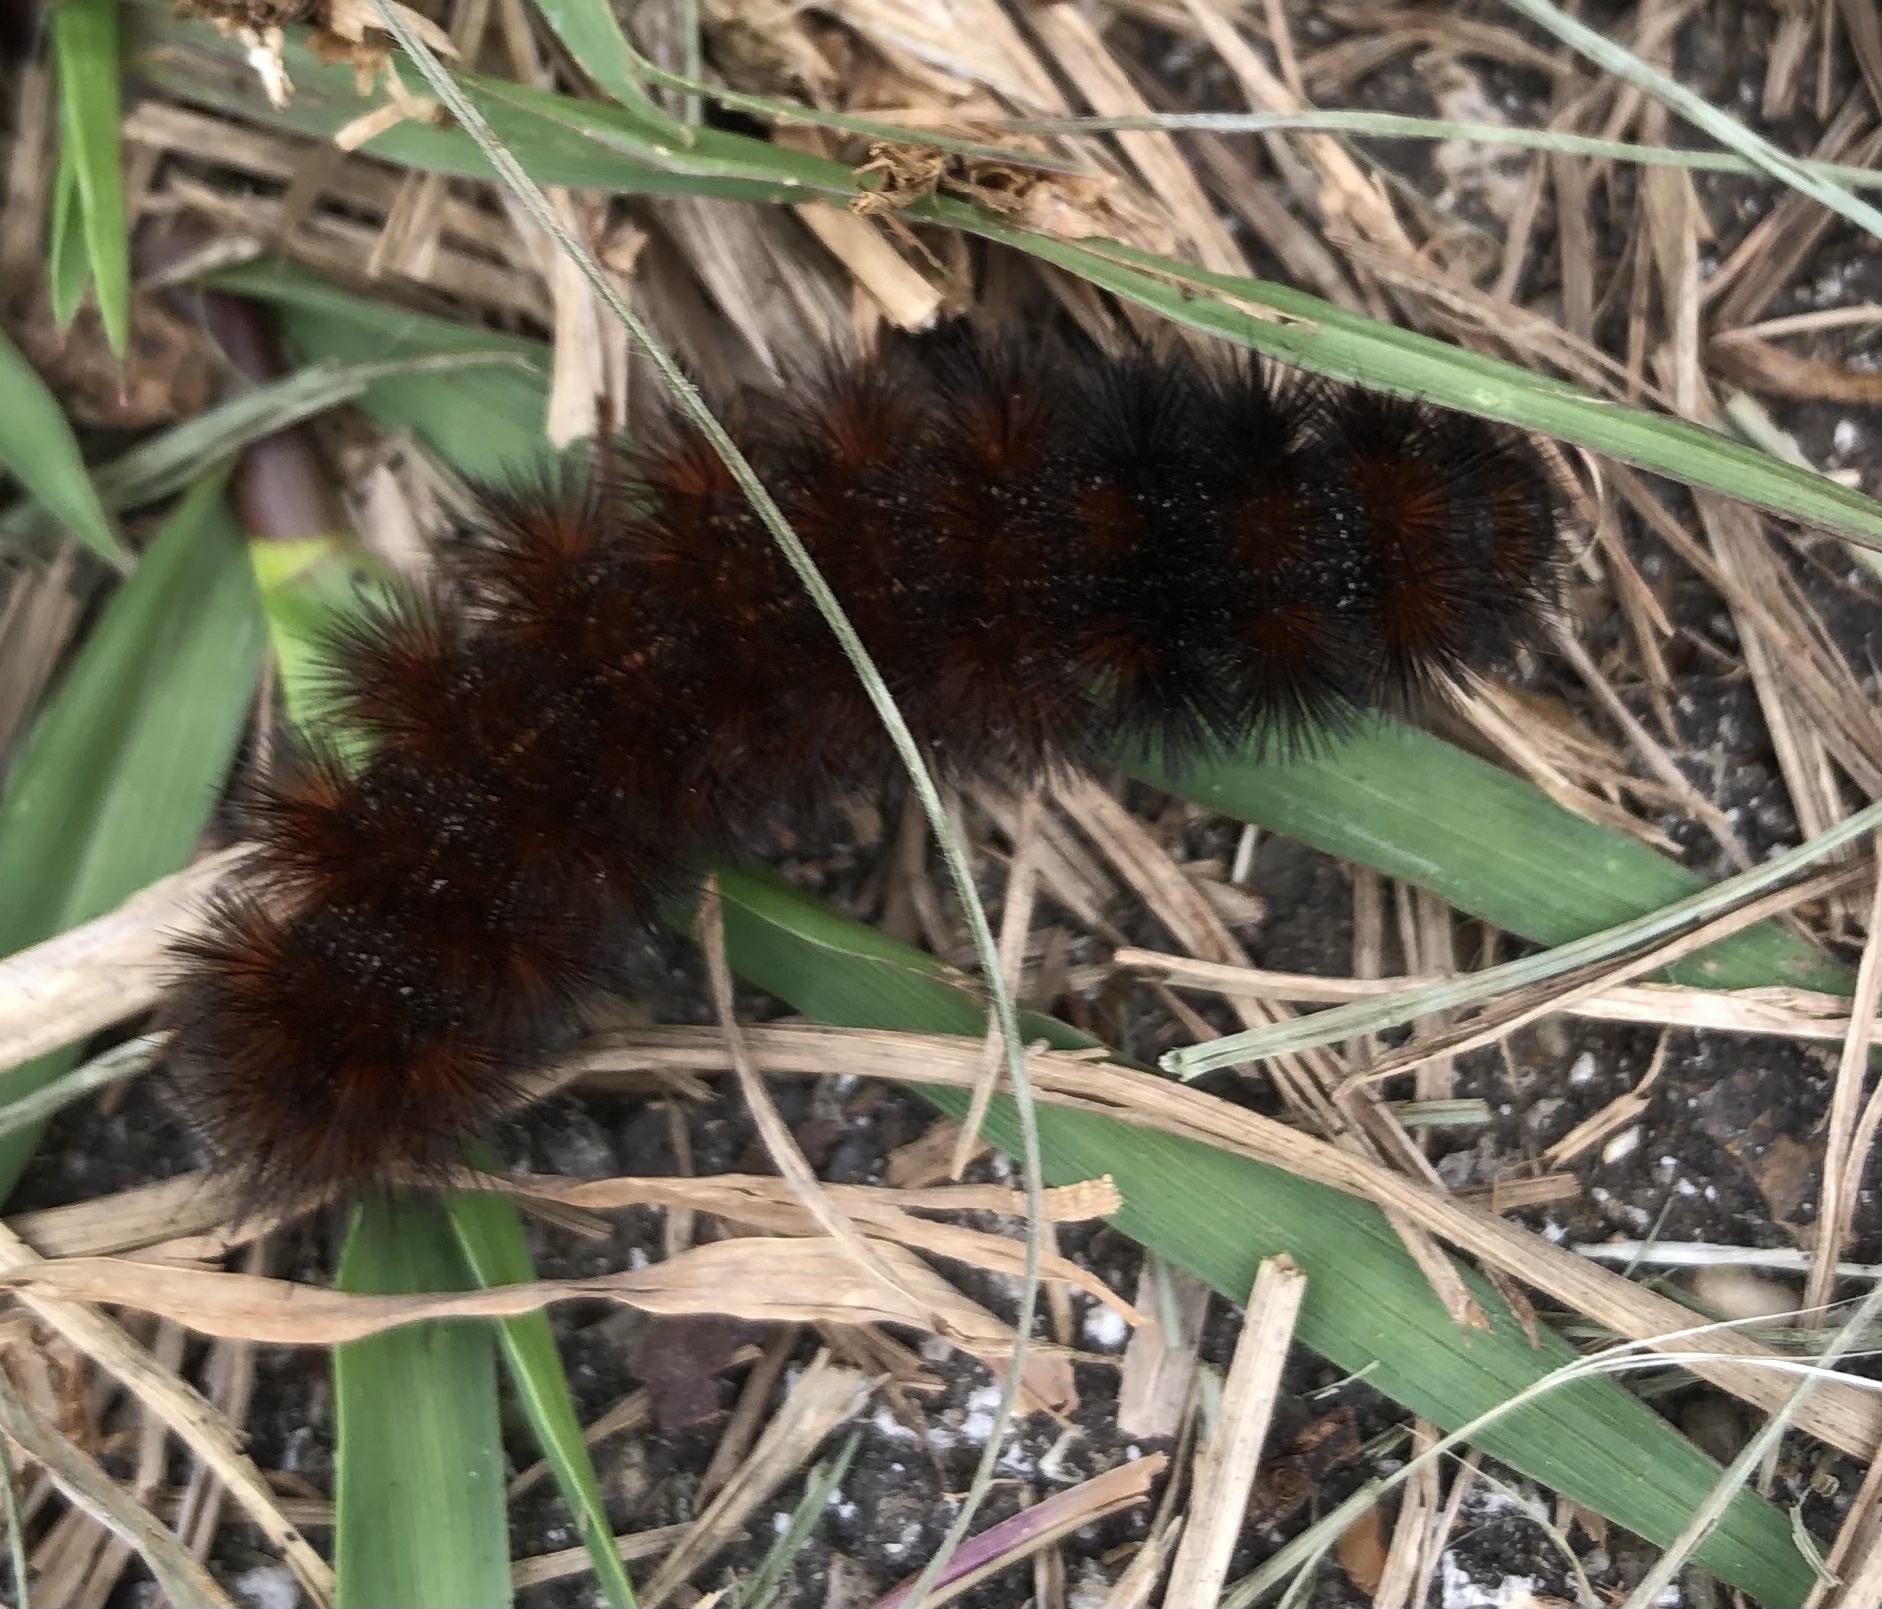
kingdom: Animalia
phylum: Arthropoda
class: Insecta
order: Lepidoptera
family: Erebidae
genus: Pyrrharctia
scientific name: Pyrrharctia isabella
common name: Isabella tiger moth
